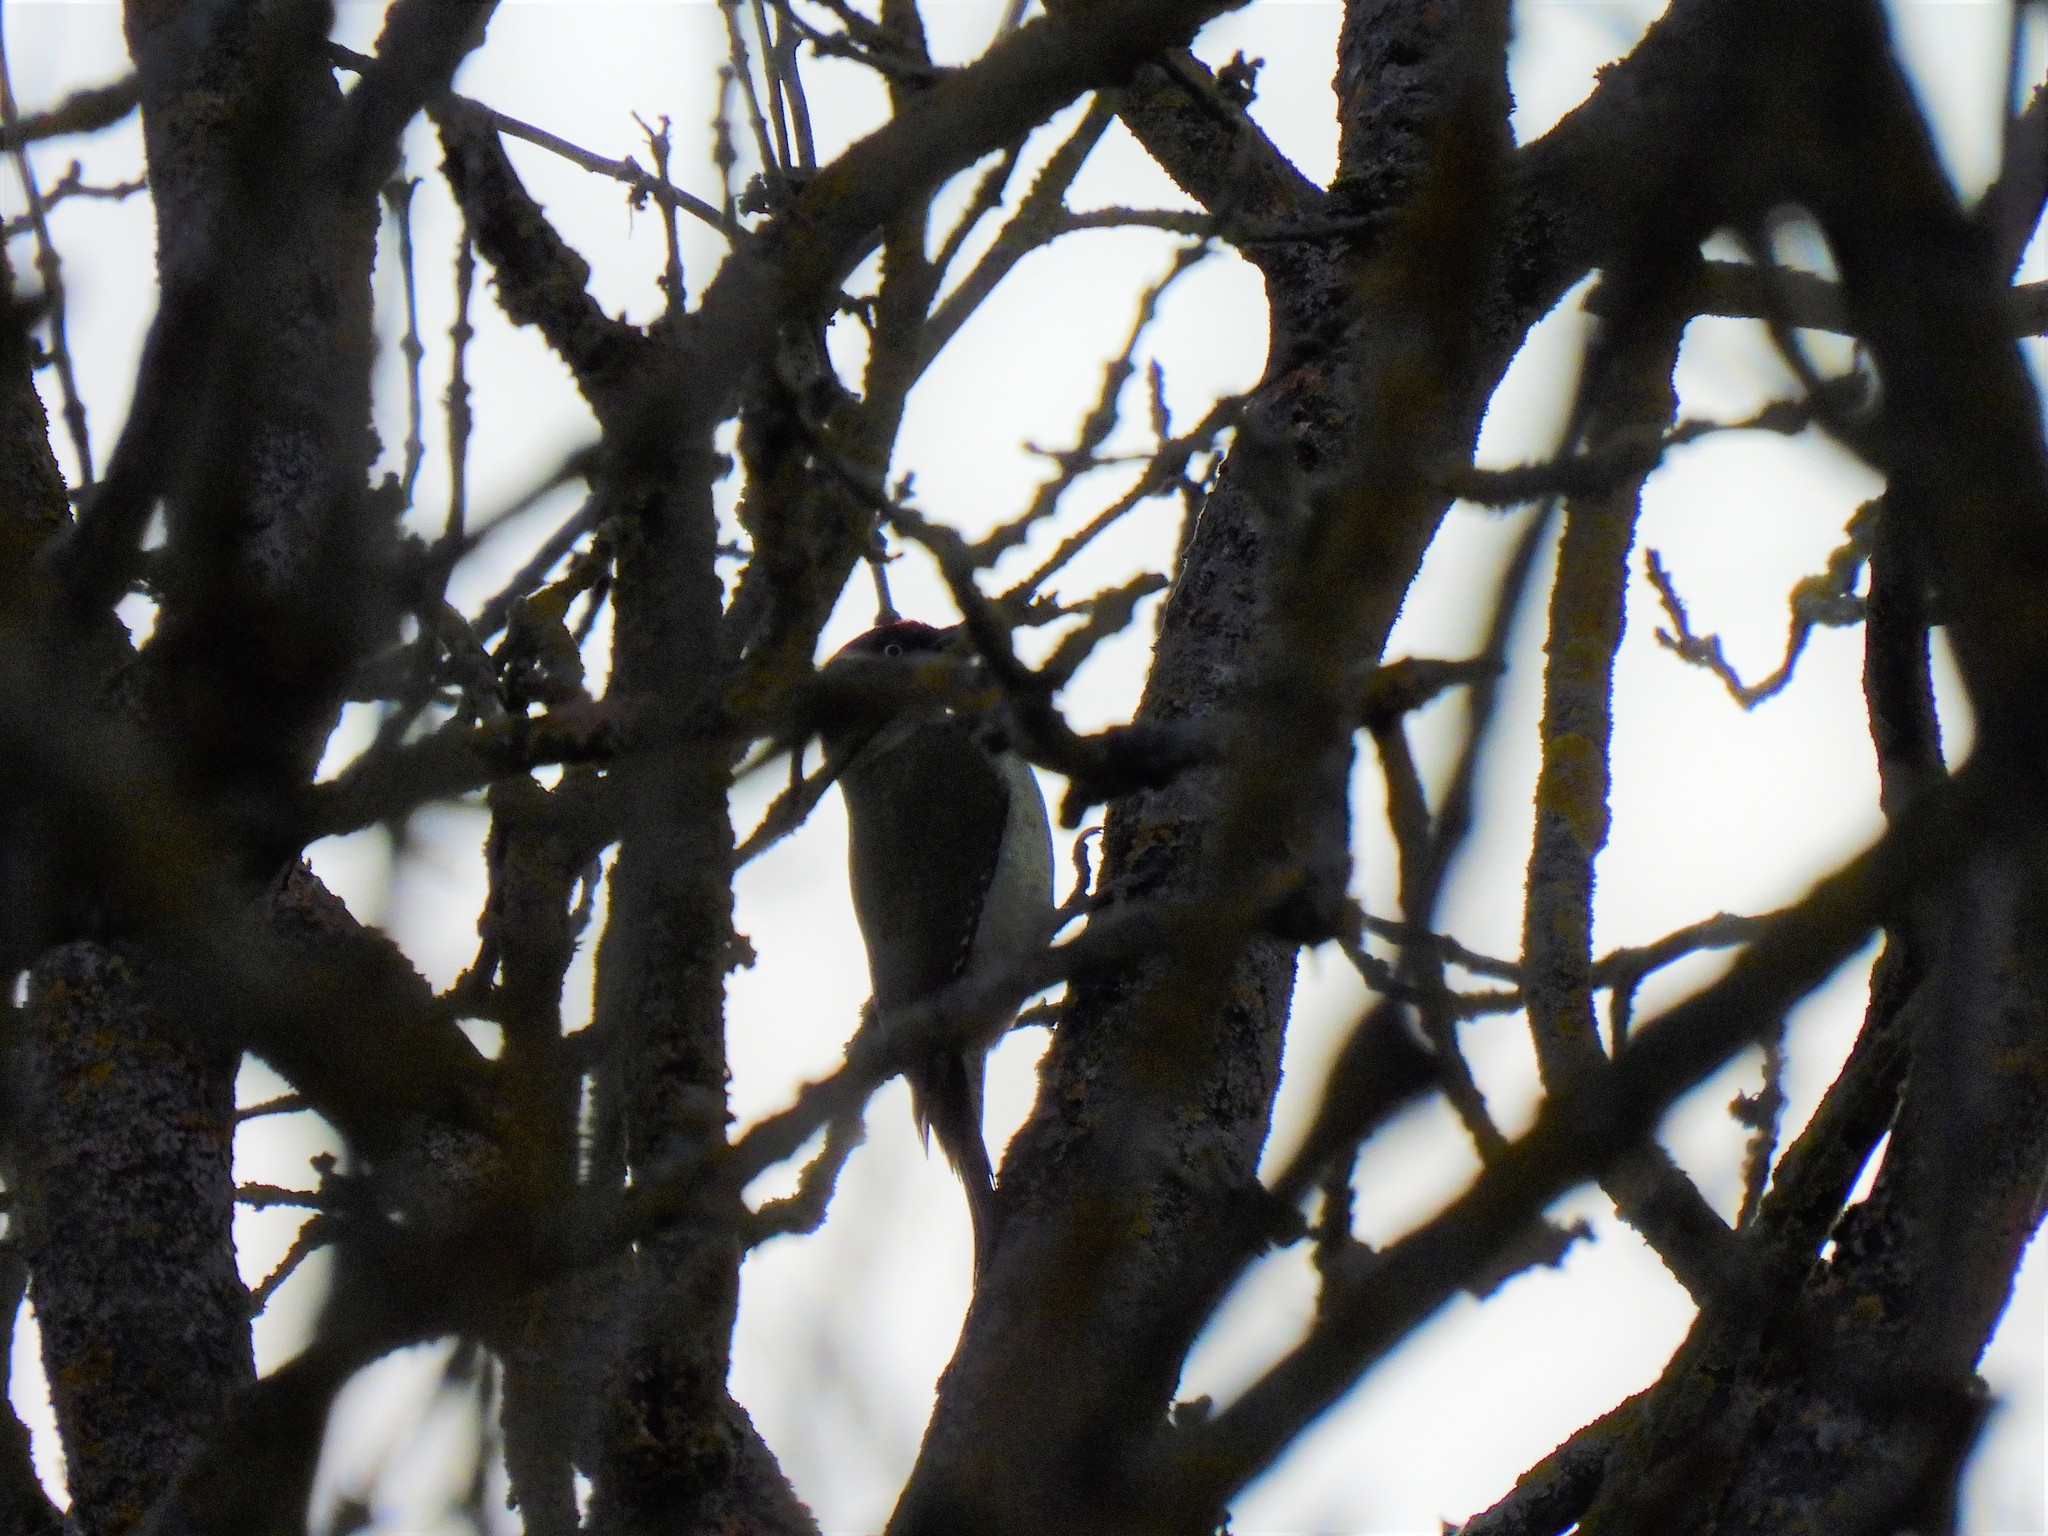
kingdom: Animalia
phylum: Chordata
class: Aves
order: Piciformes
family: Picidae
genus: Picus
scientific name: Picus viridis
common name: European green woodpecker
